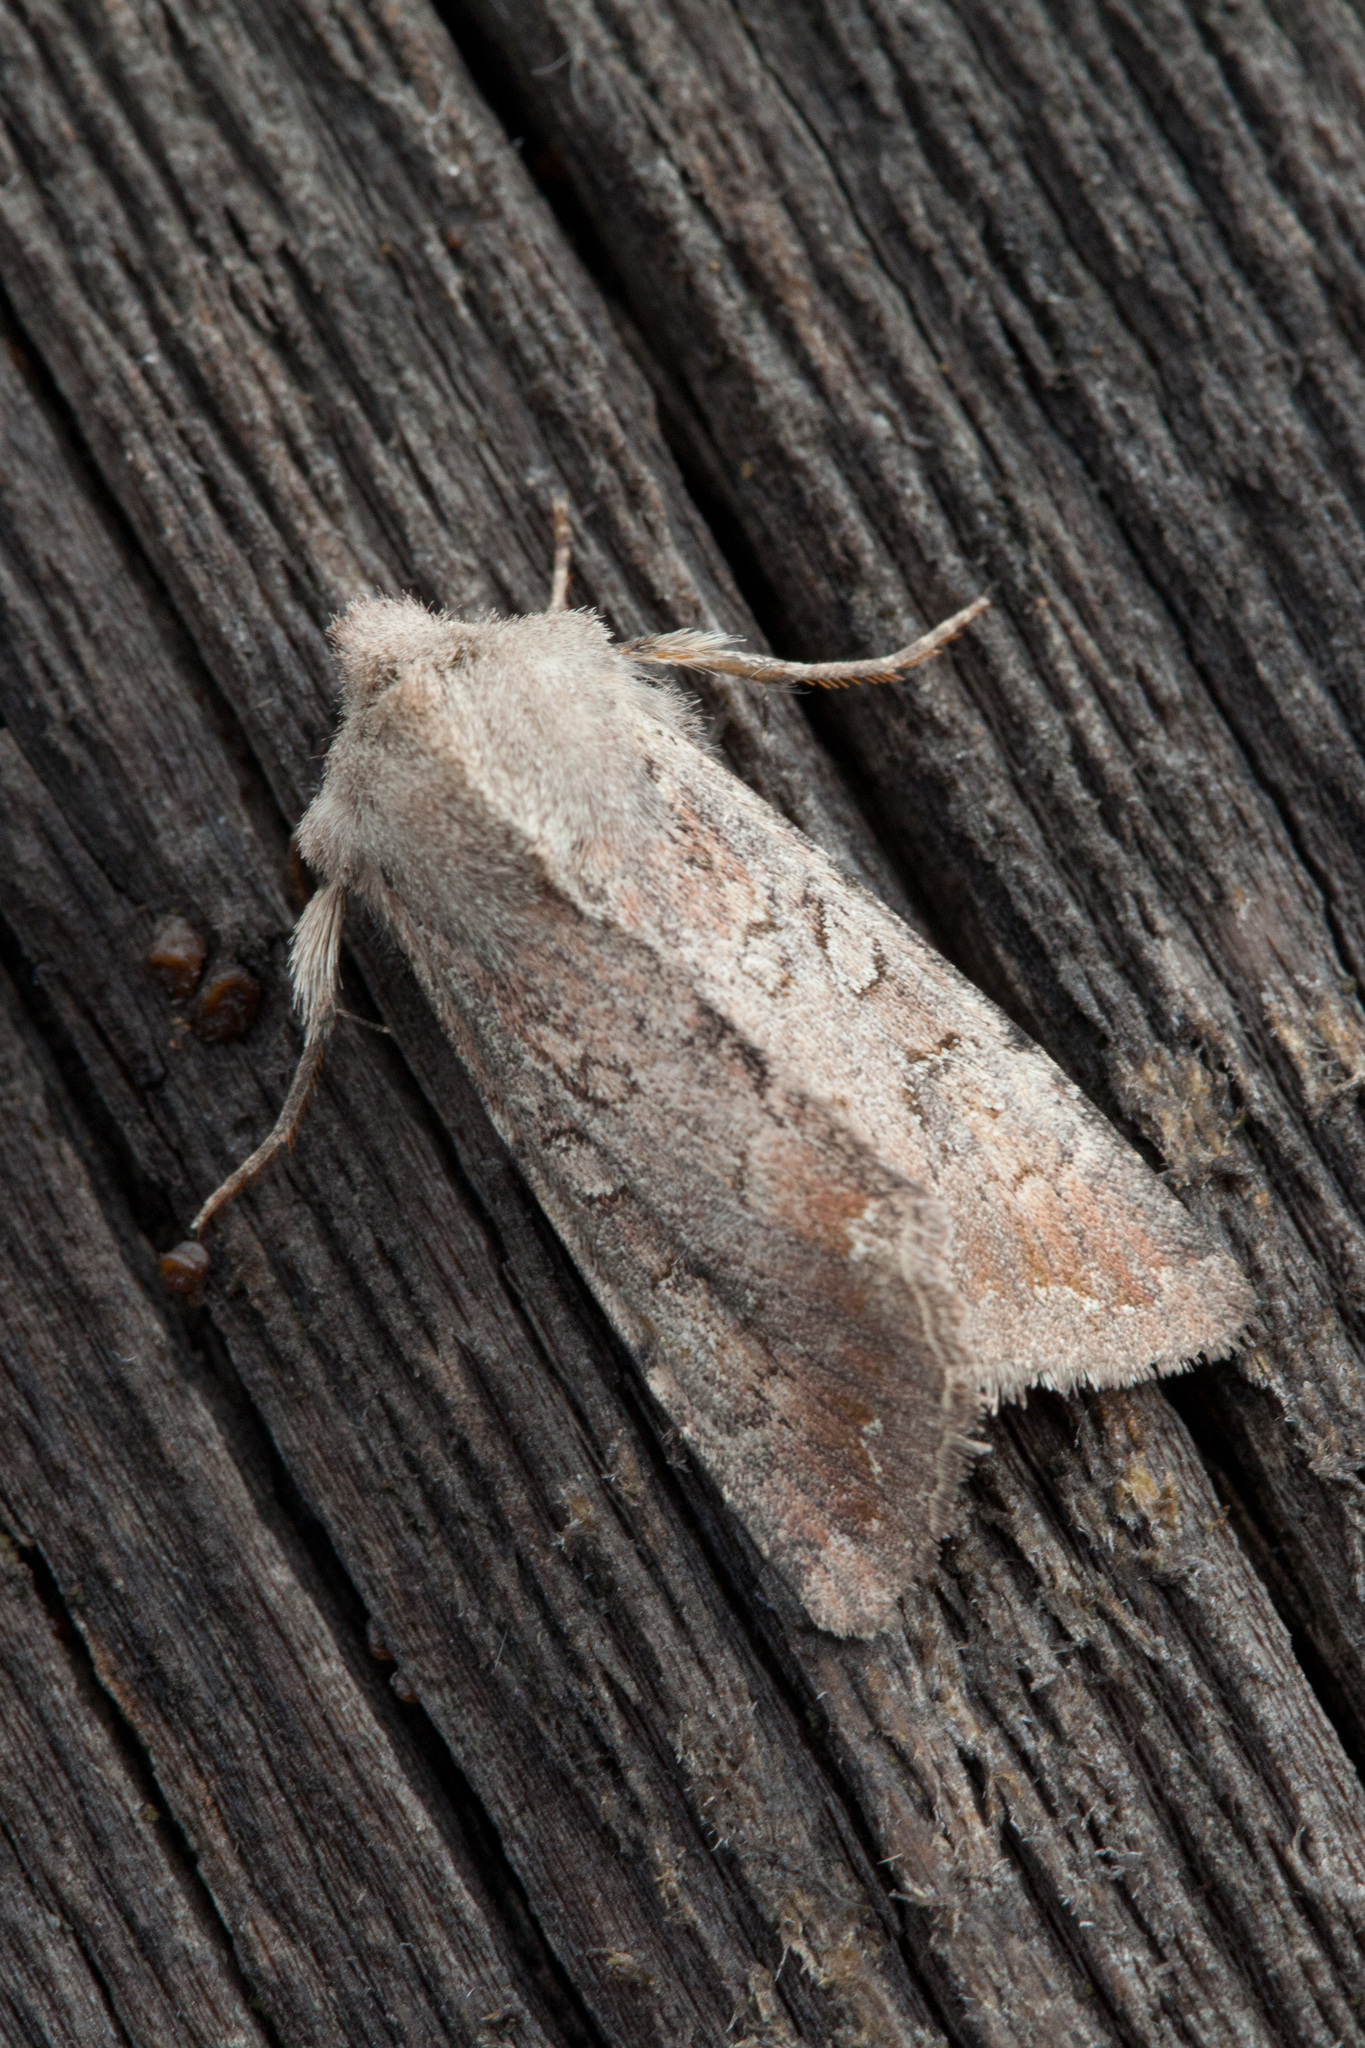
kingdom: Animalia
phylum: Arthropoda
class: Insecta
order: Lepidoptera
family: Noctuidae
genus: Lasianobia
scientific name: Lasianobia lauta
